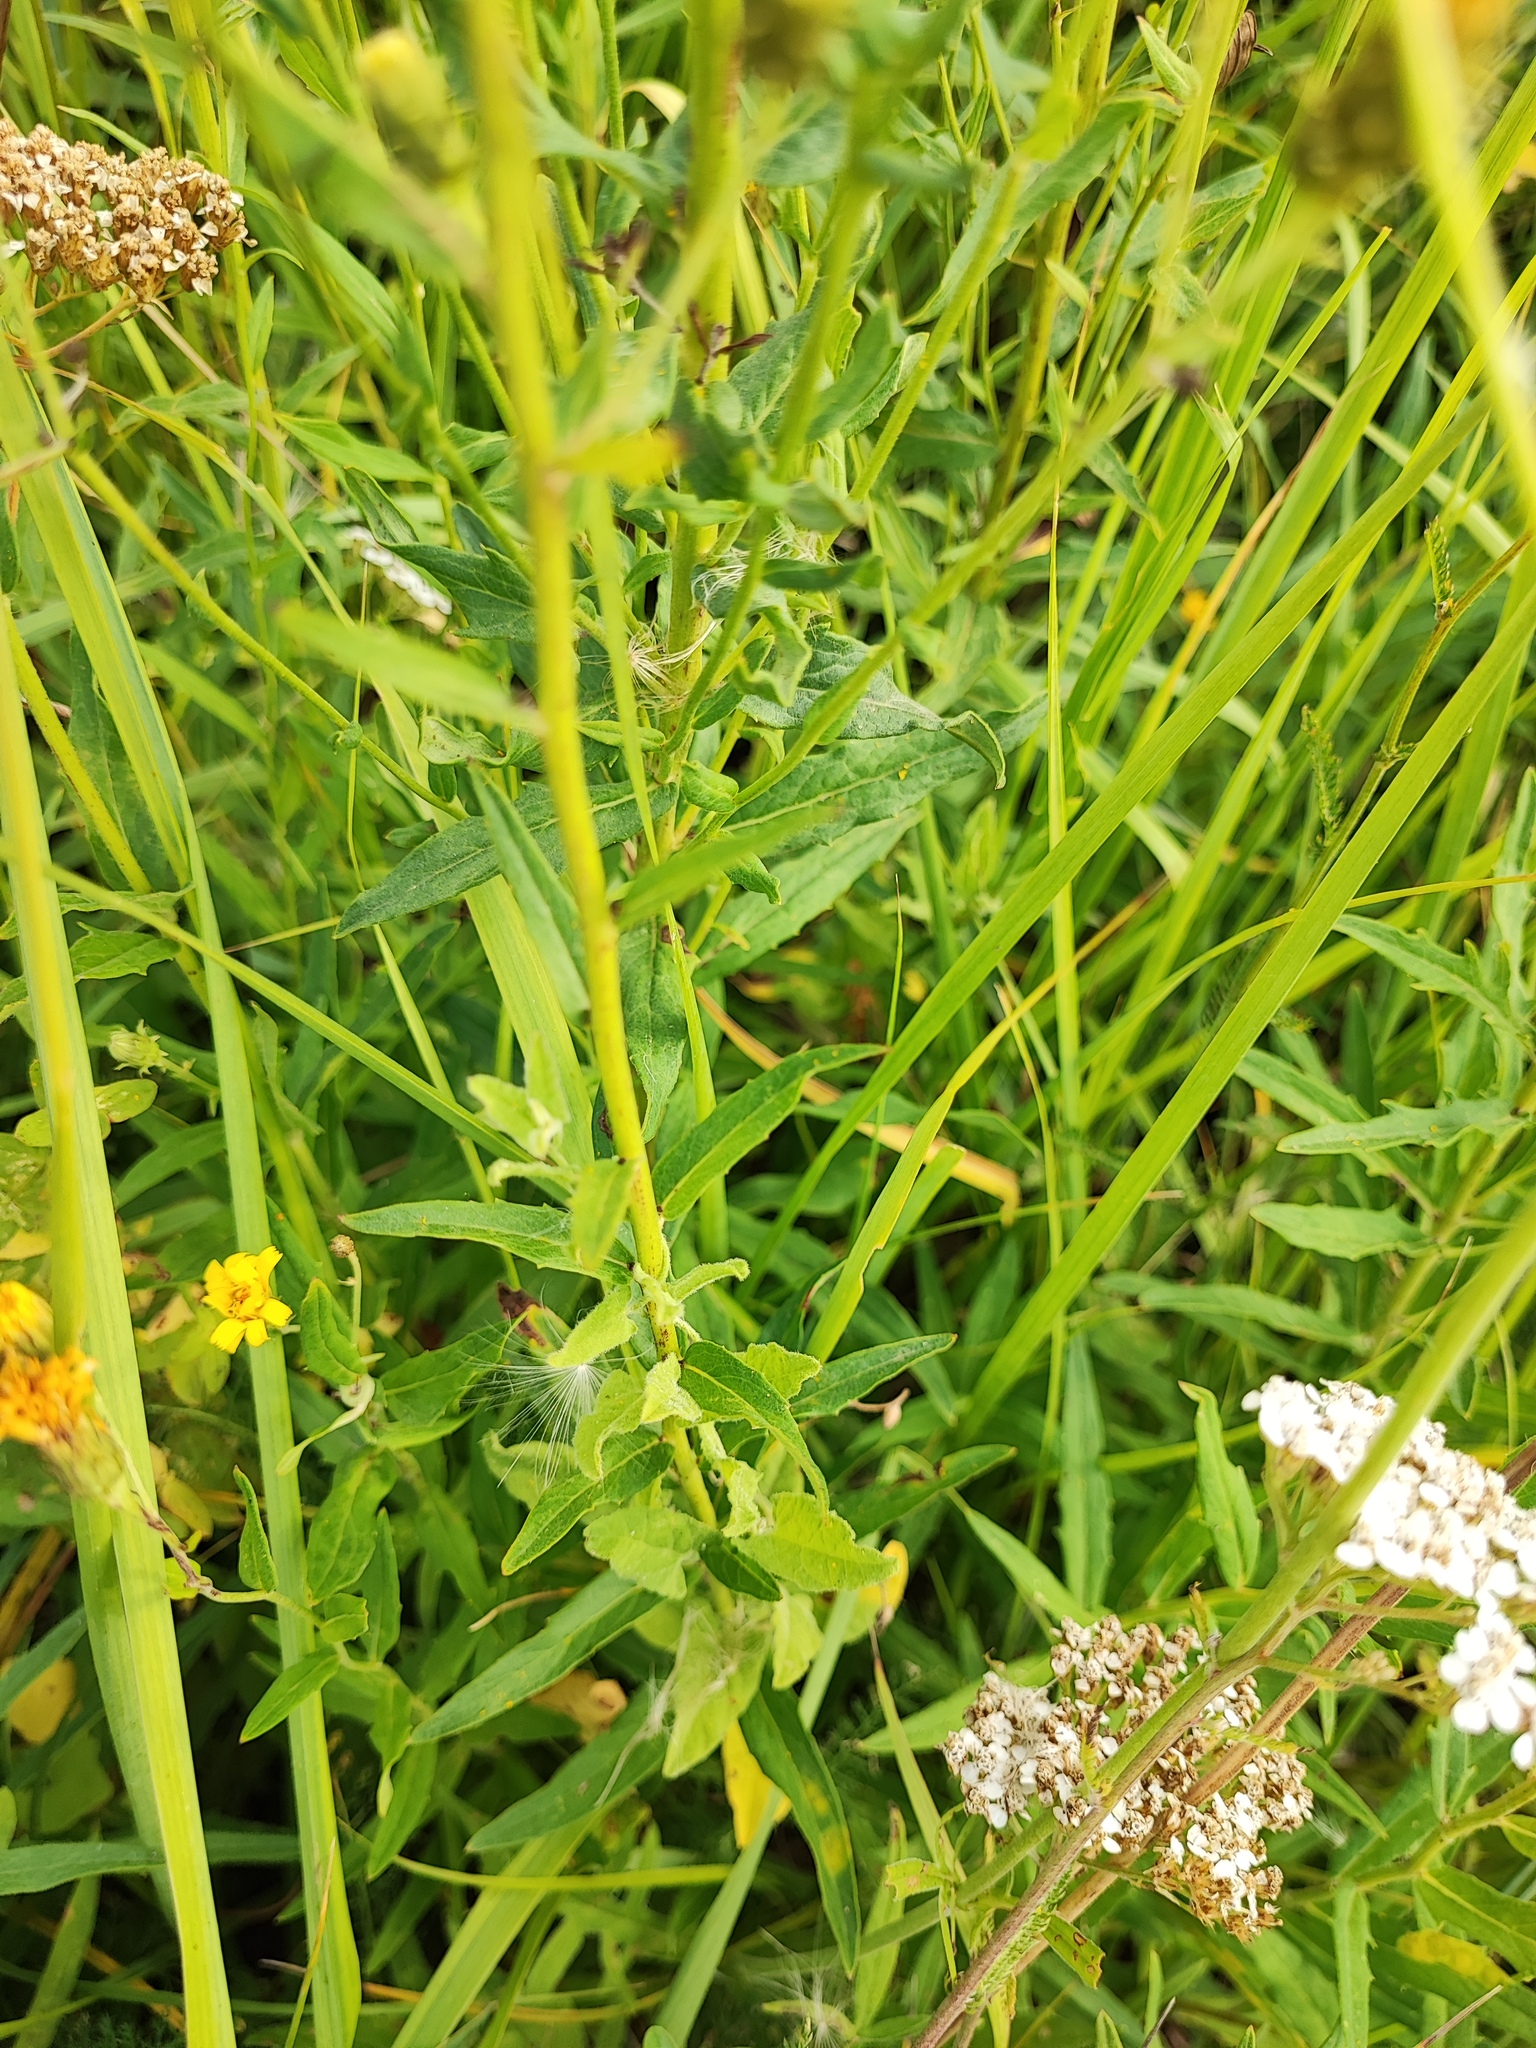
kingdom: Plantae
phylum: Tracheophyta
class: Magnoliopsida
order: Asterales
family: Asteraceae
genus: Hieracium
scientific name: Hieracium umbellatum
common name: Northern hawkweed
